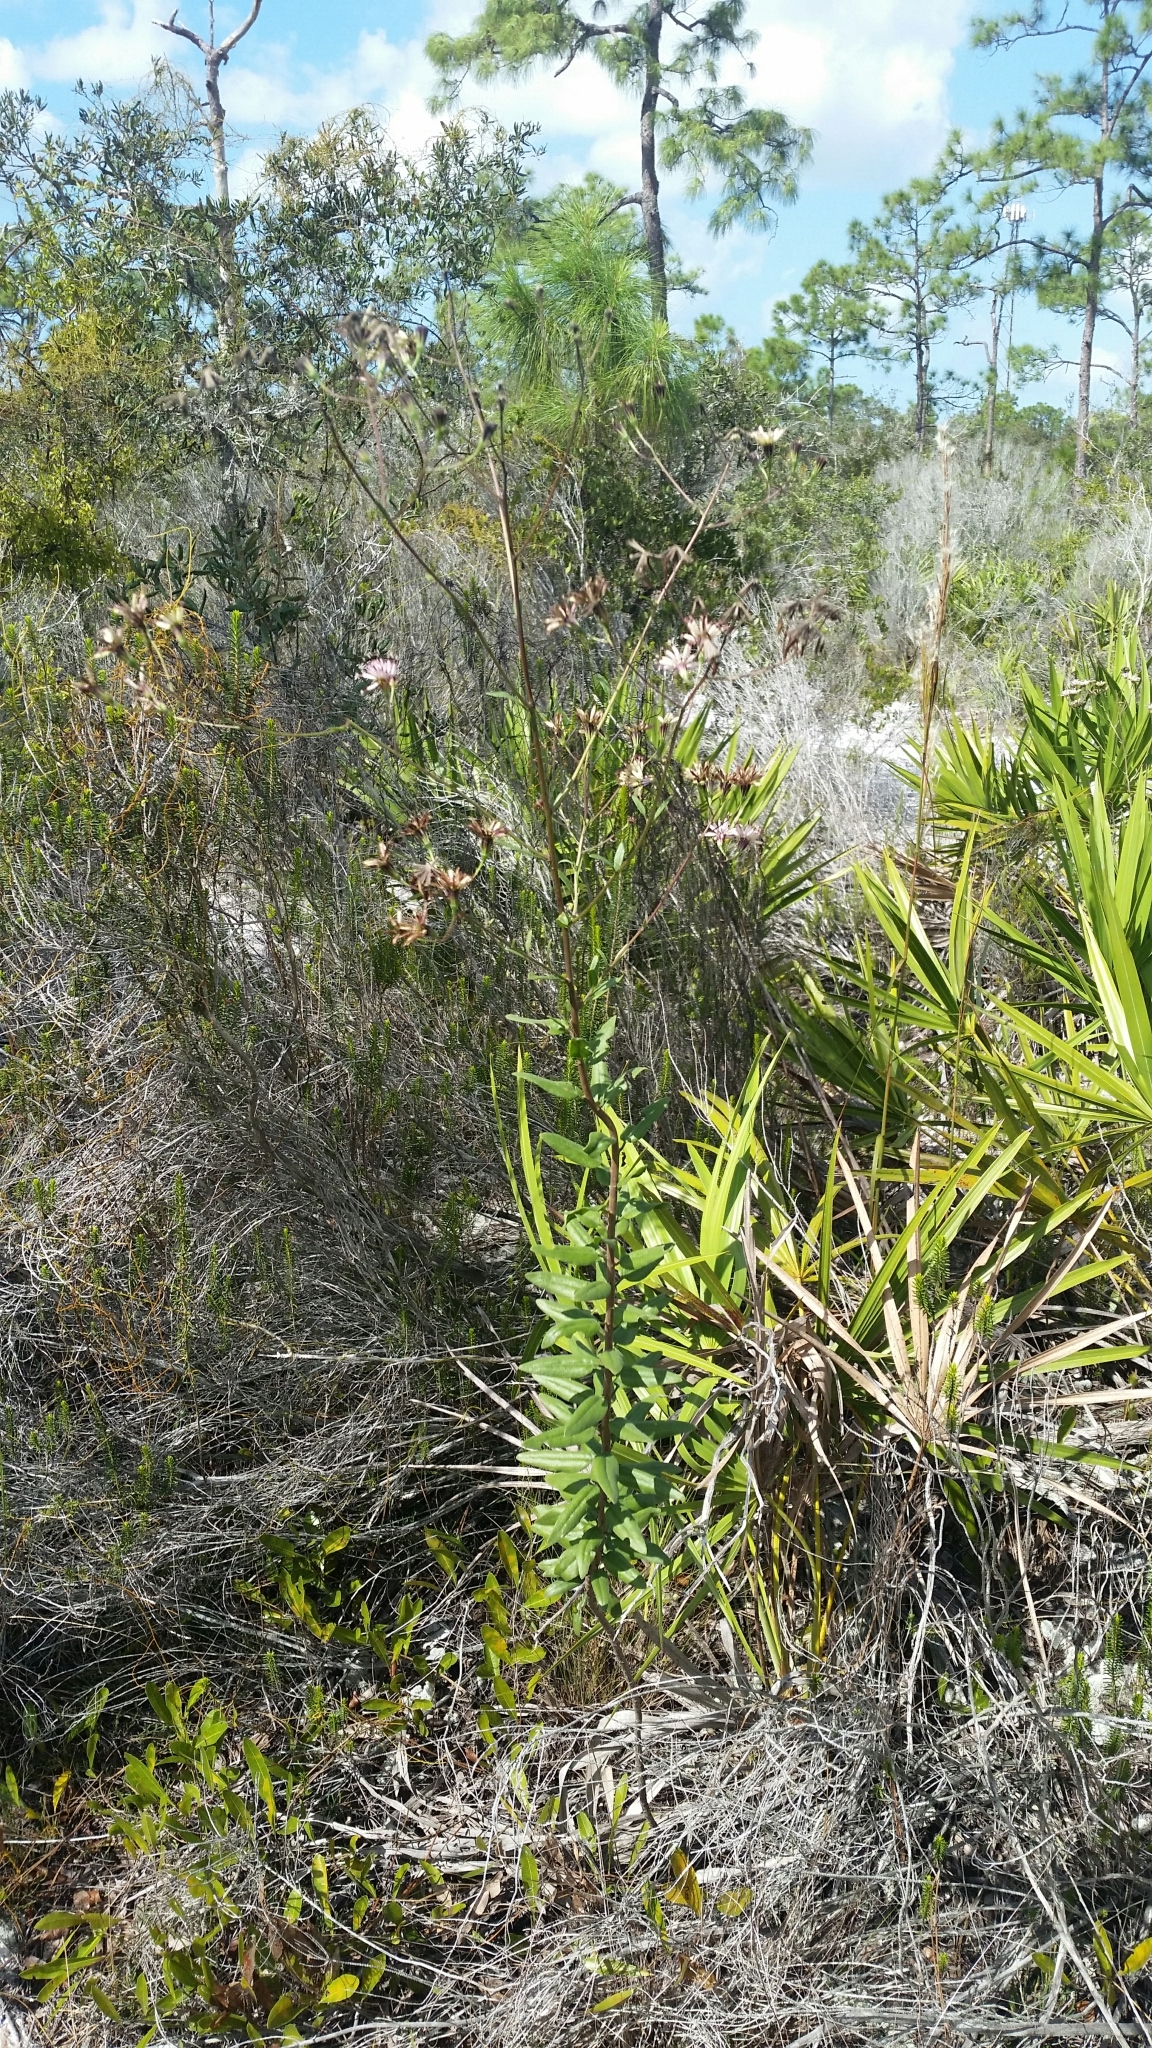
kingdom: Plantae
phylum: Tracheophyta
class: Magnoliopsida
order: Asterales
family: Asteraceae
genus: Palafoxia
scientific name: Palafoxia feayi
